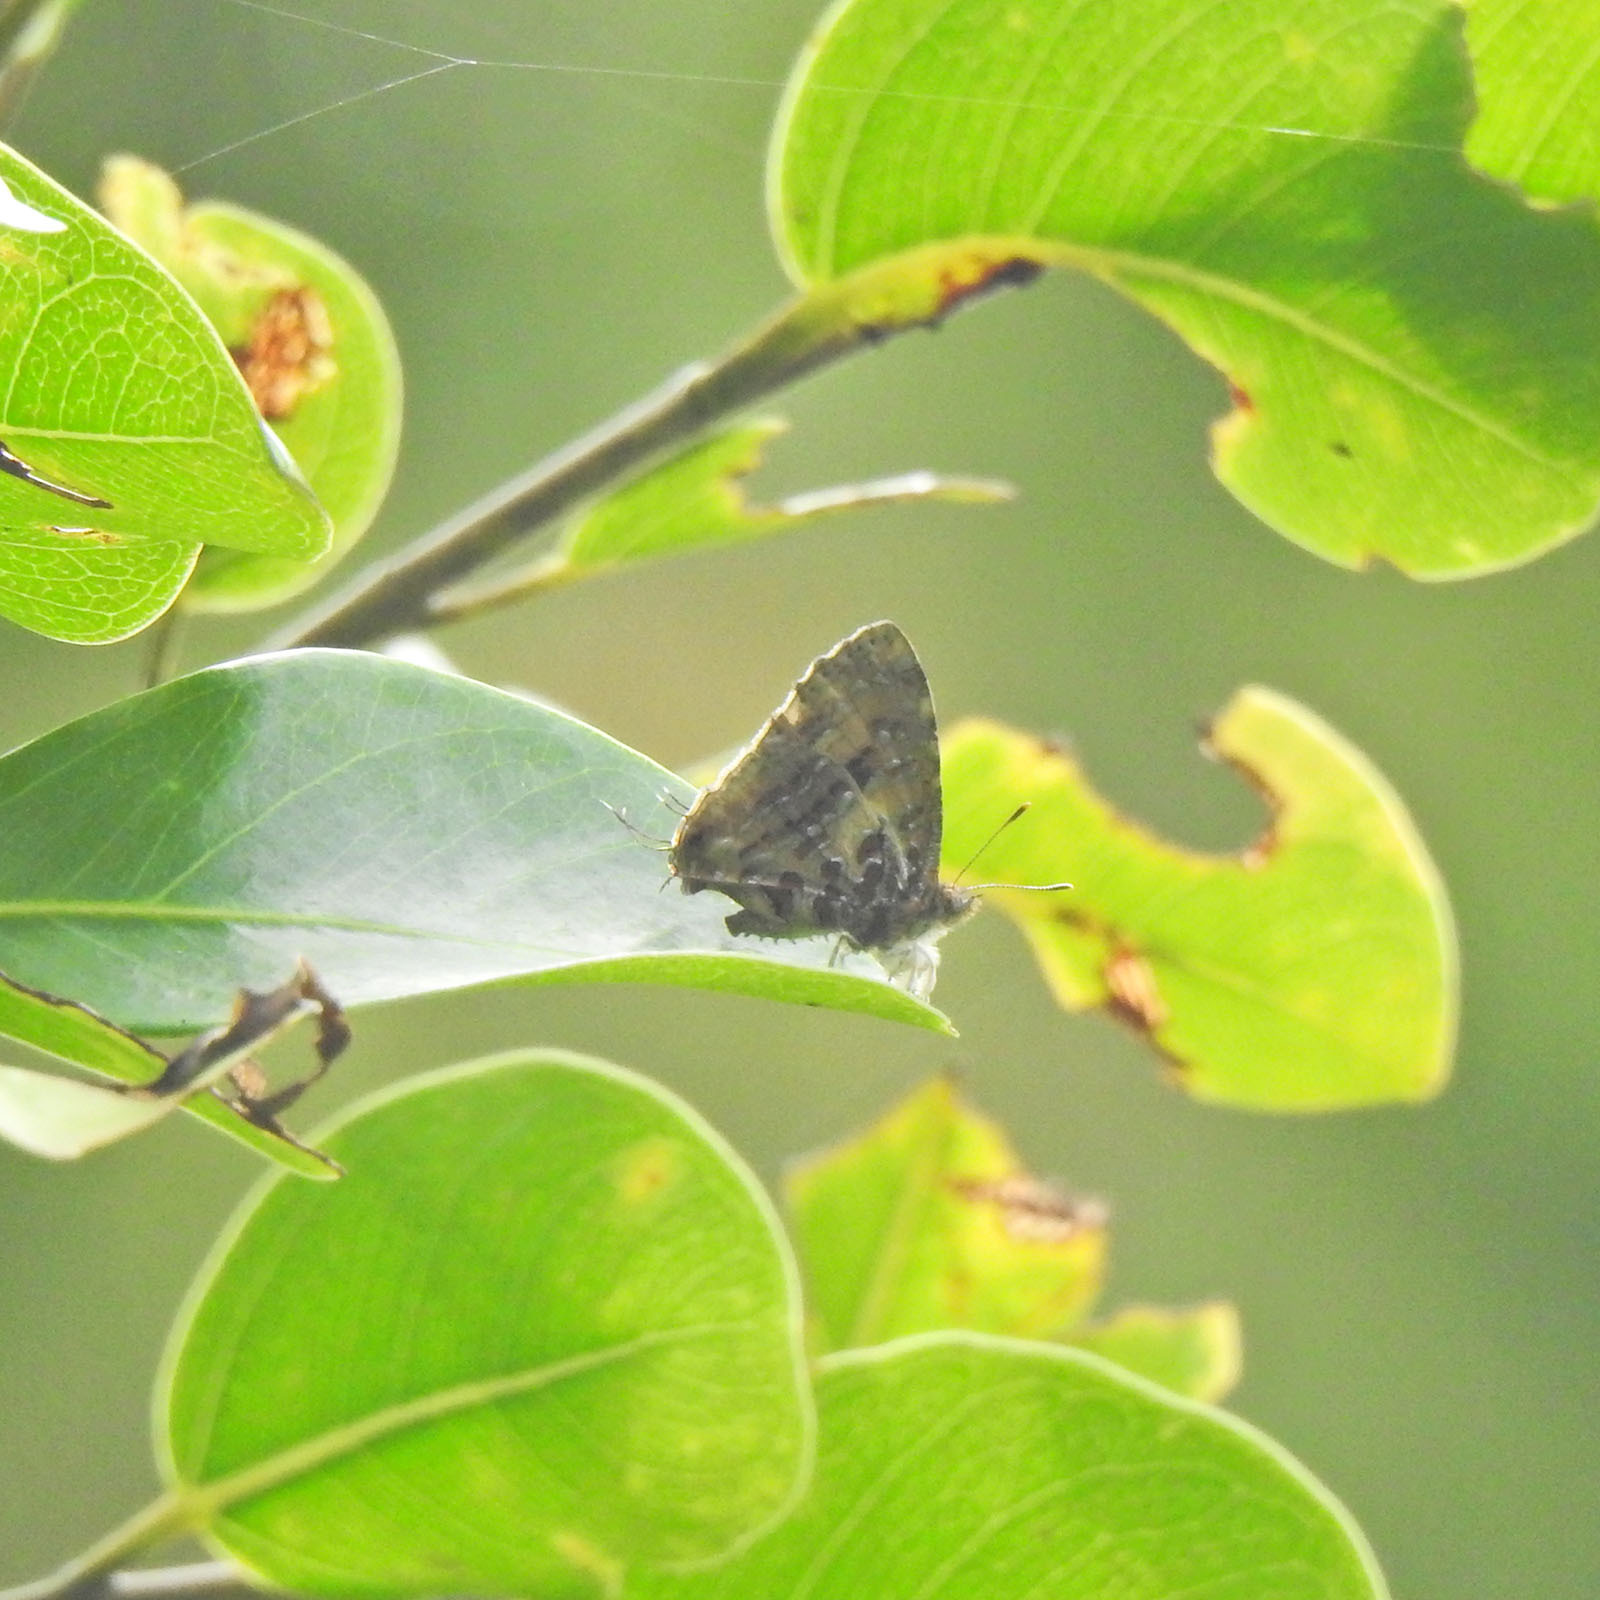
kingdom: Animalia
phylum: Arthropoda
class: Insecta
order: Lepidoptera
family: Lycaenidae
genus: Catapaecilma
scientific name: Catapaecilma major
